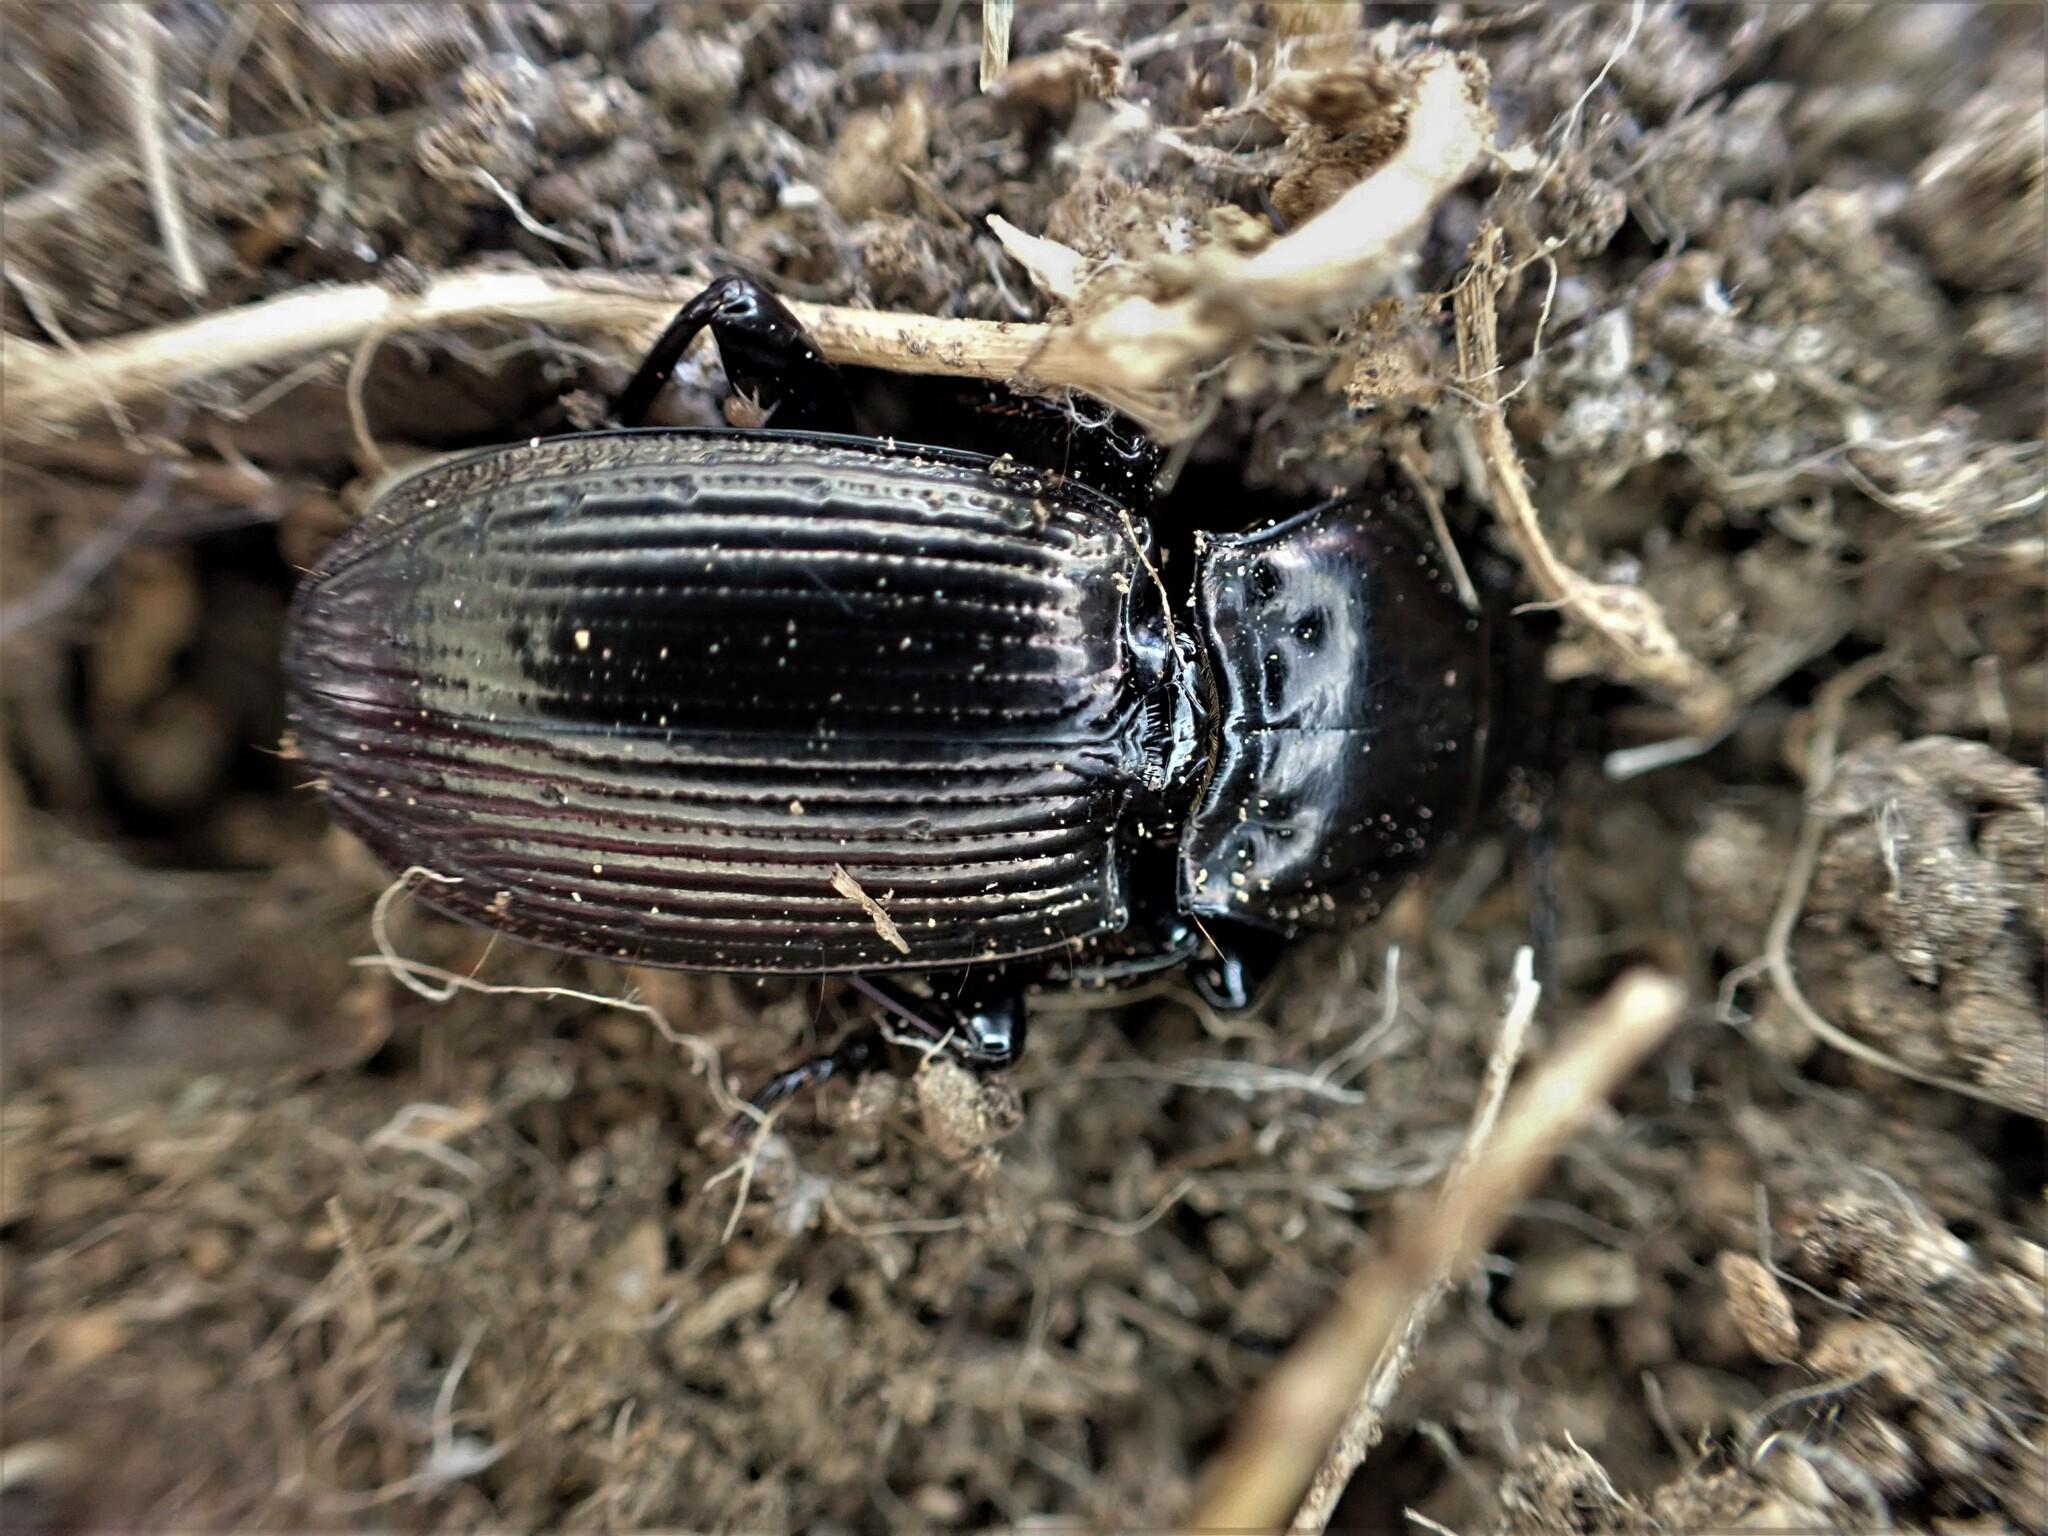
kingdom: Animalia
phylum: Arthropoda
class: Insecta
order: Coleoptera
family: Carabidae
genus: Megadromus
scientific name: Megadromus guerinii
